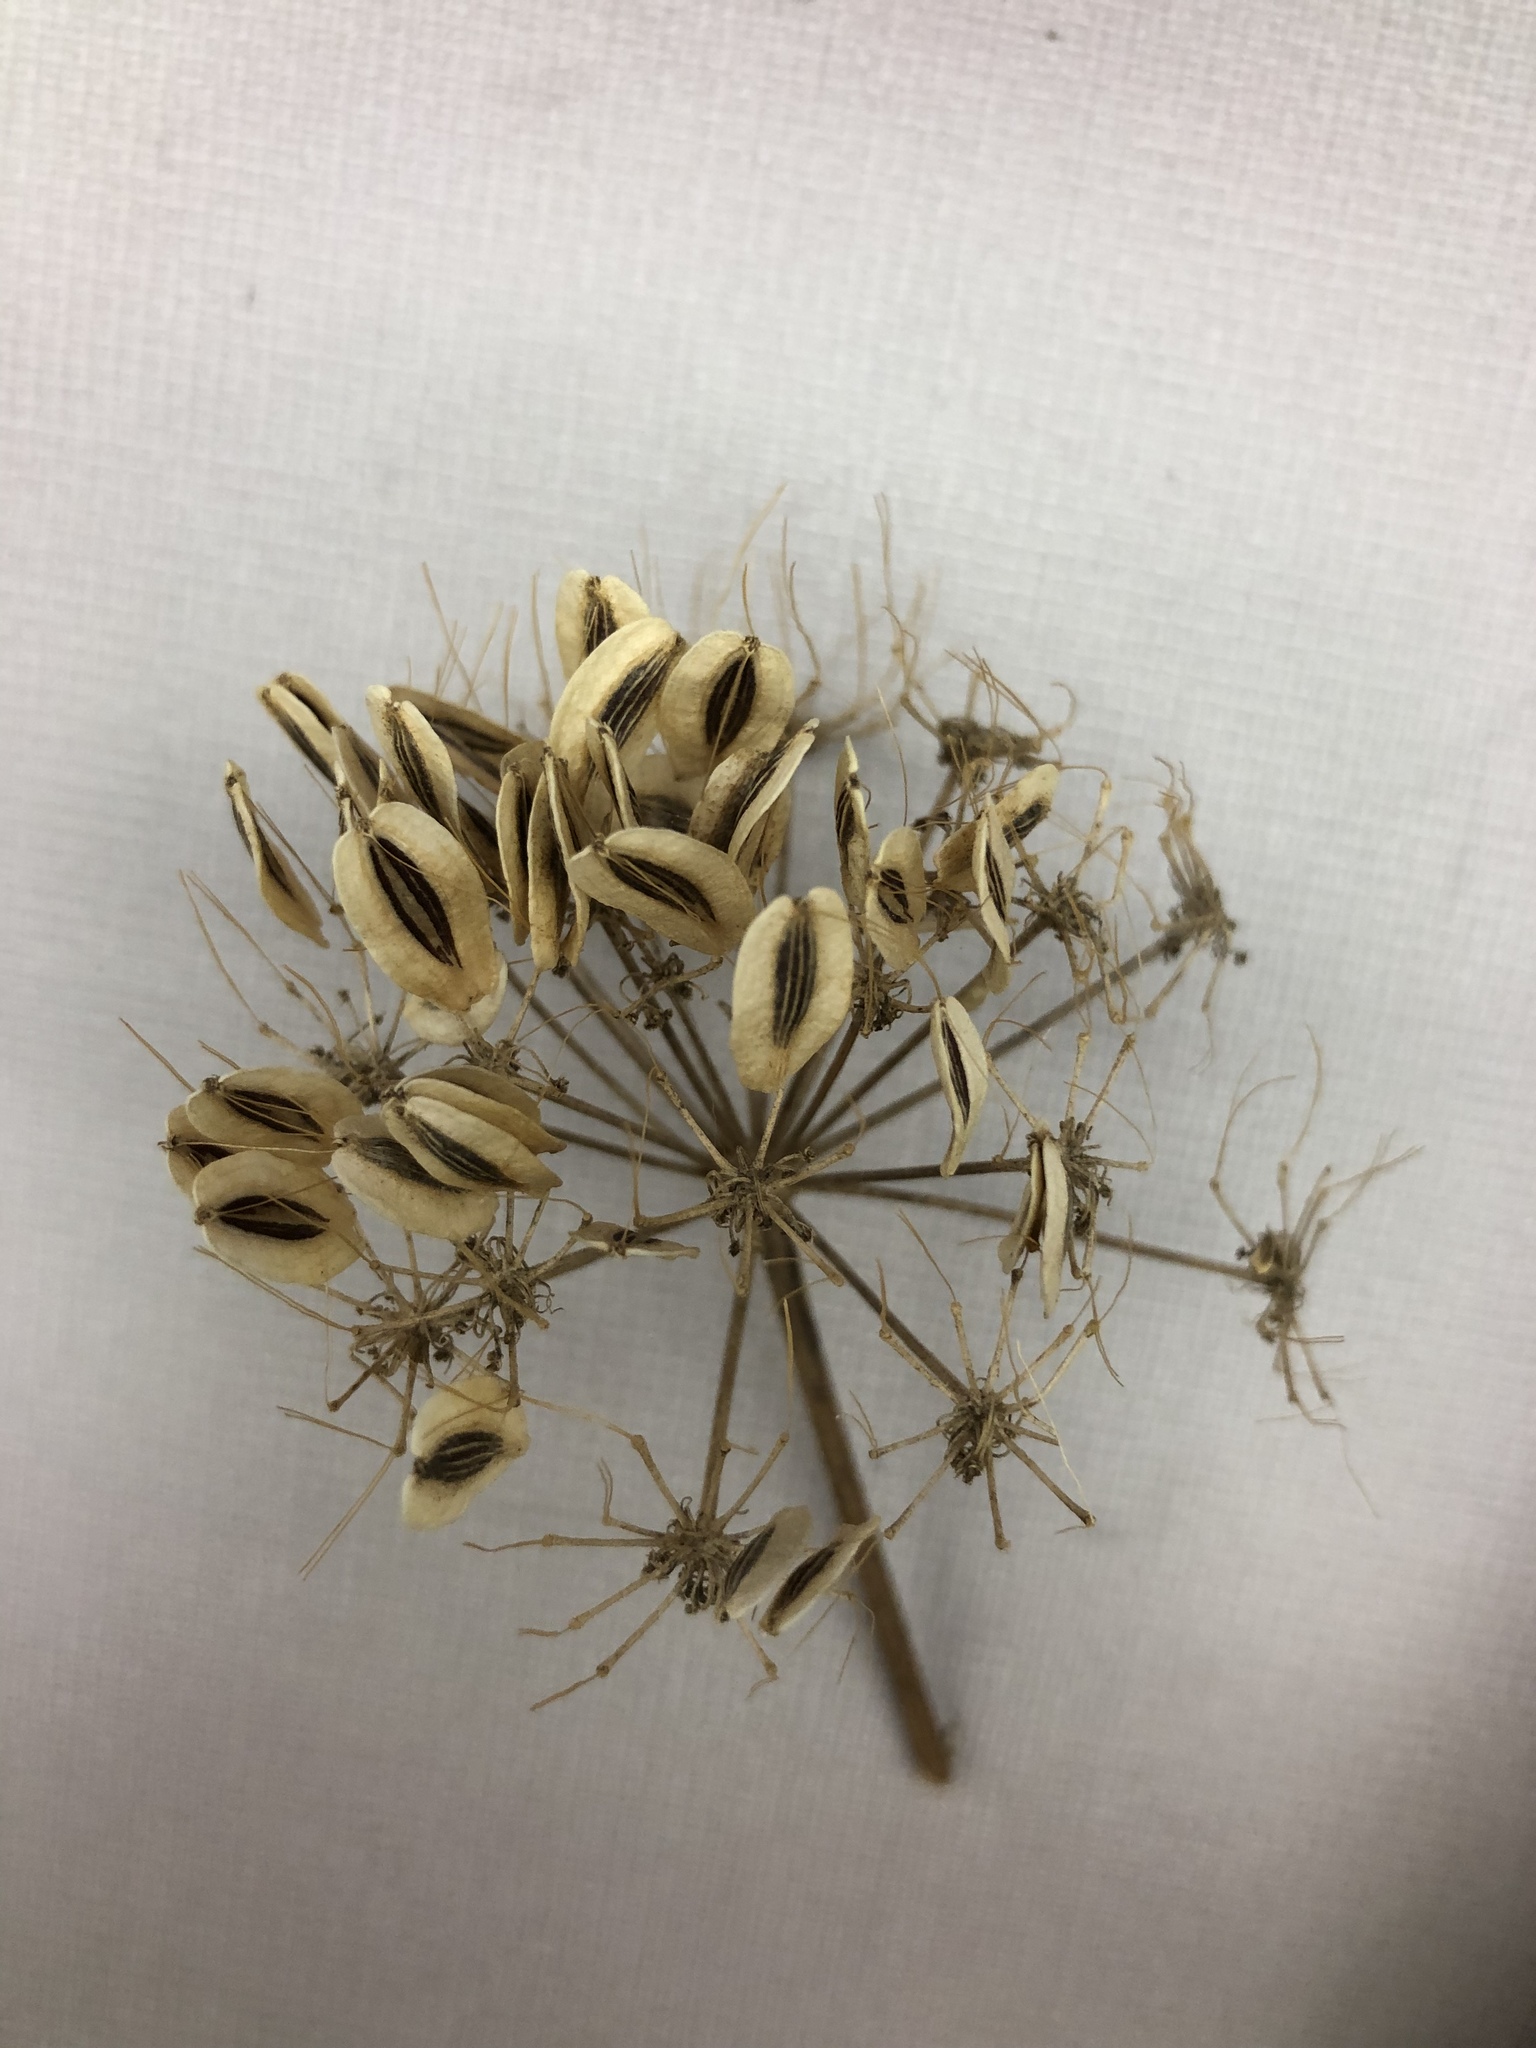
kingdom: Plantae
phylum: Tracheophyta
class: Magnoliopsida
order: Apiales
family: Apiaceae
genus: Polytaenia
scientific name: Polytaenia texana
